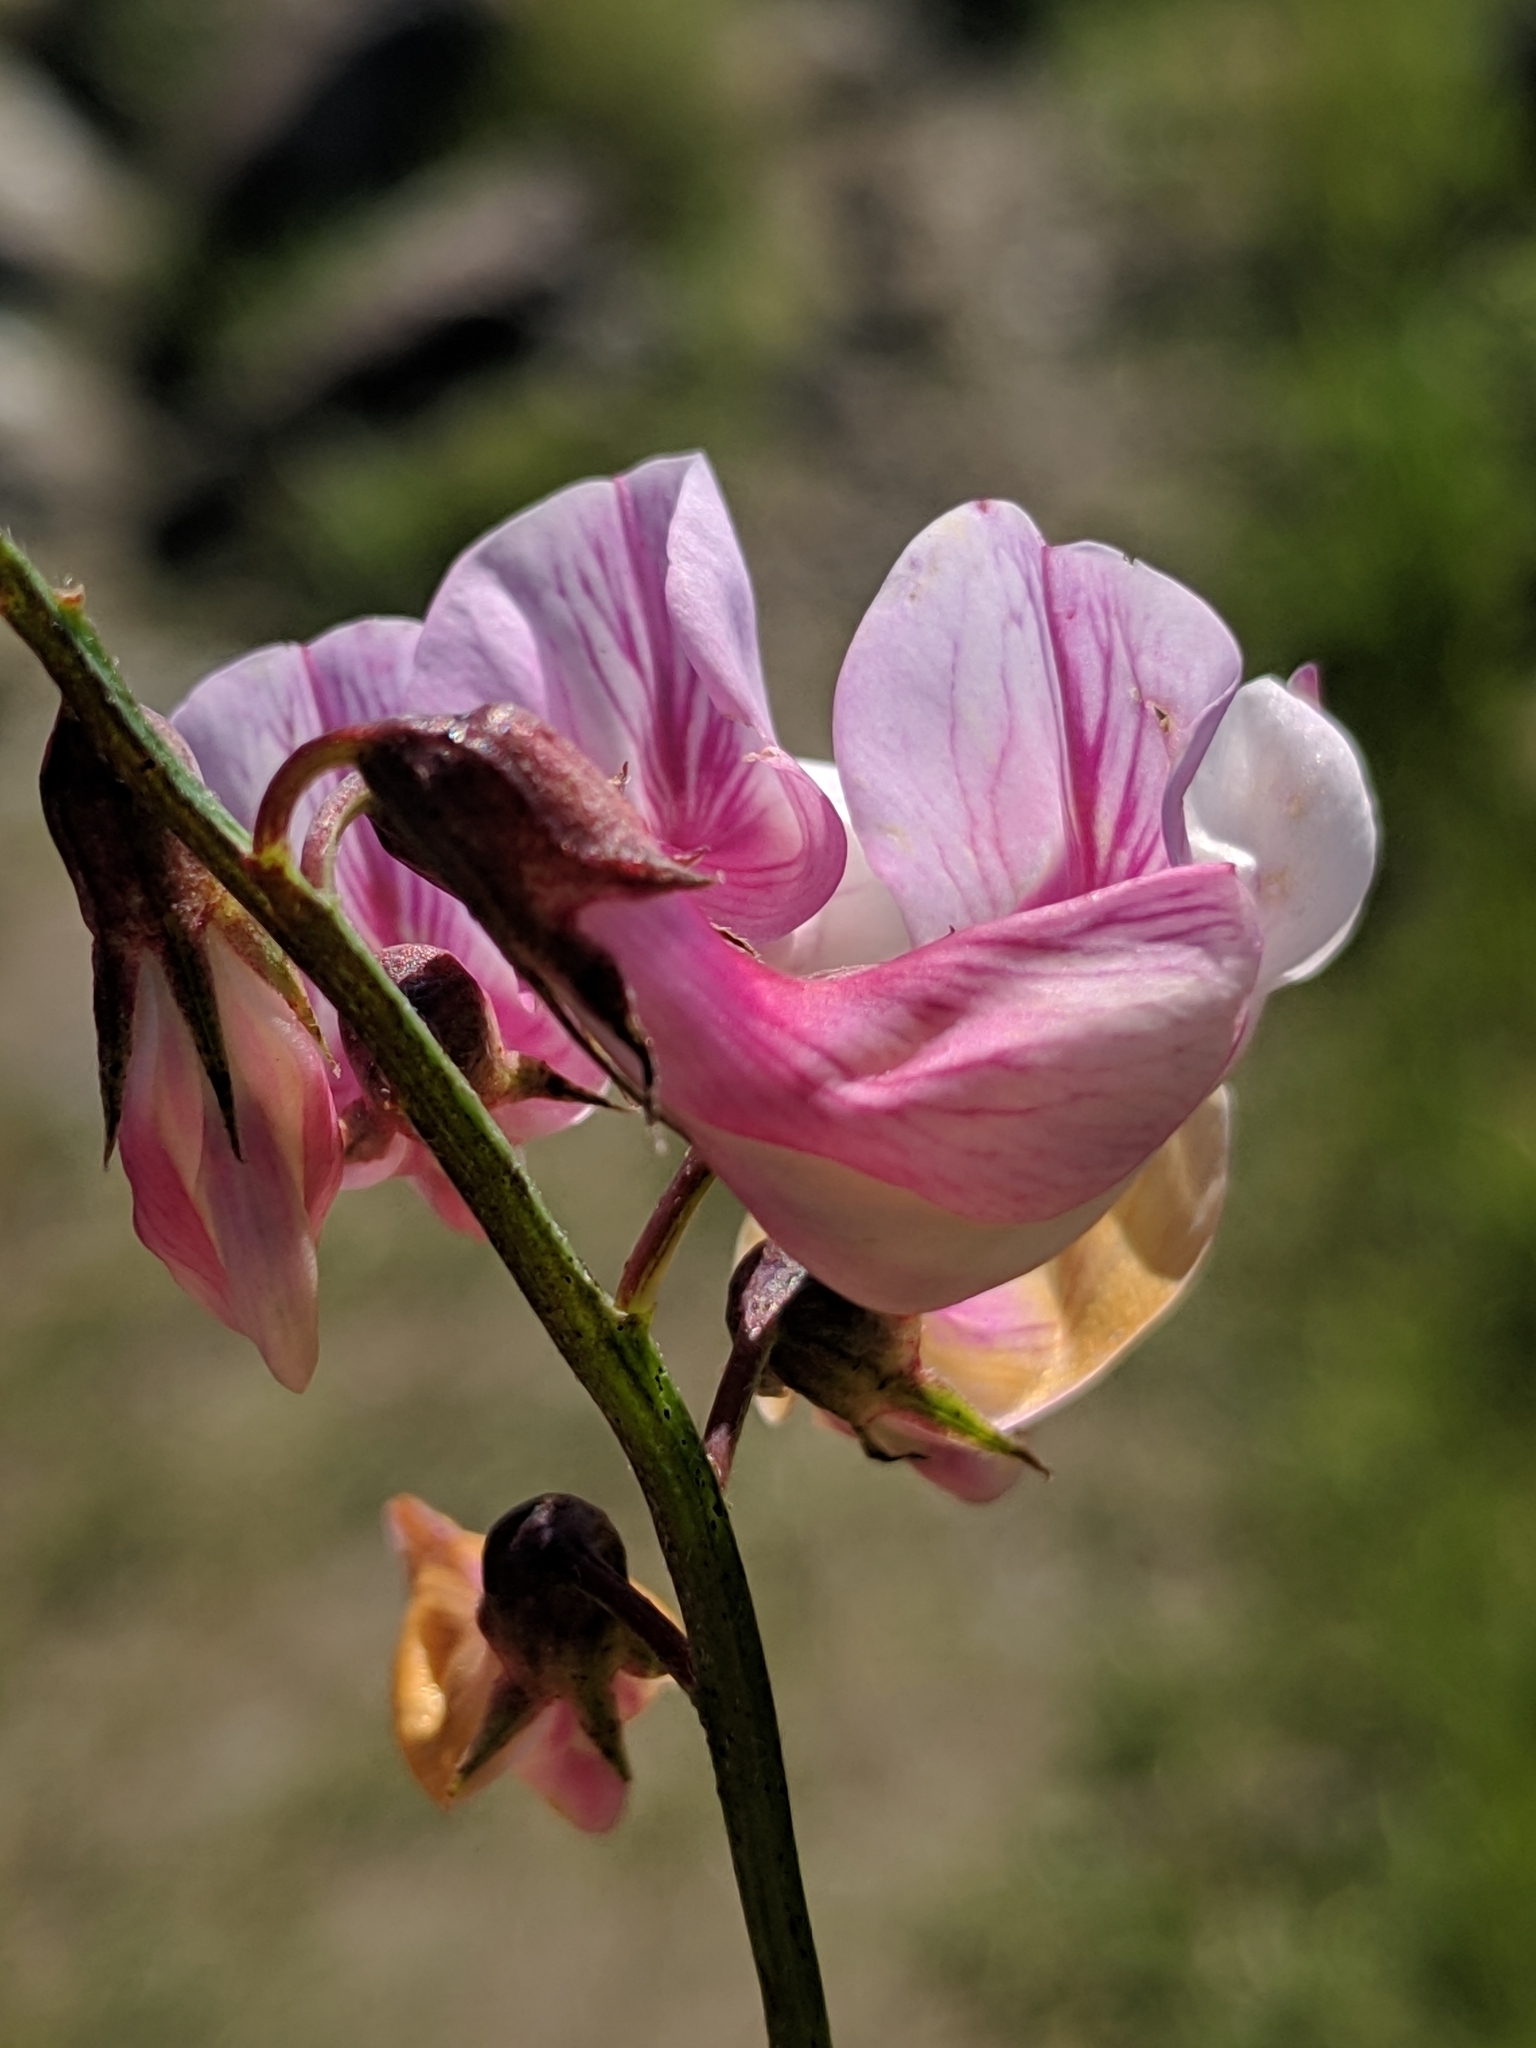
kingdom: Plantae
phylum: Tracheophyta
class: Magnoliopsida
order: Fabales
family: Fabaceae
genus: Lathyrus
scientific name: Lathyrus vestitus
